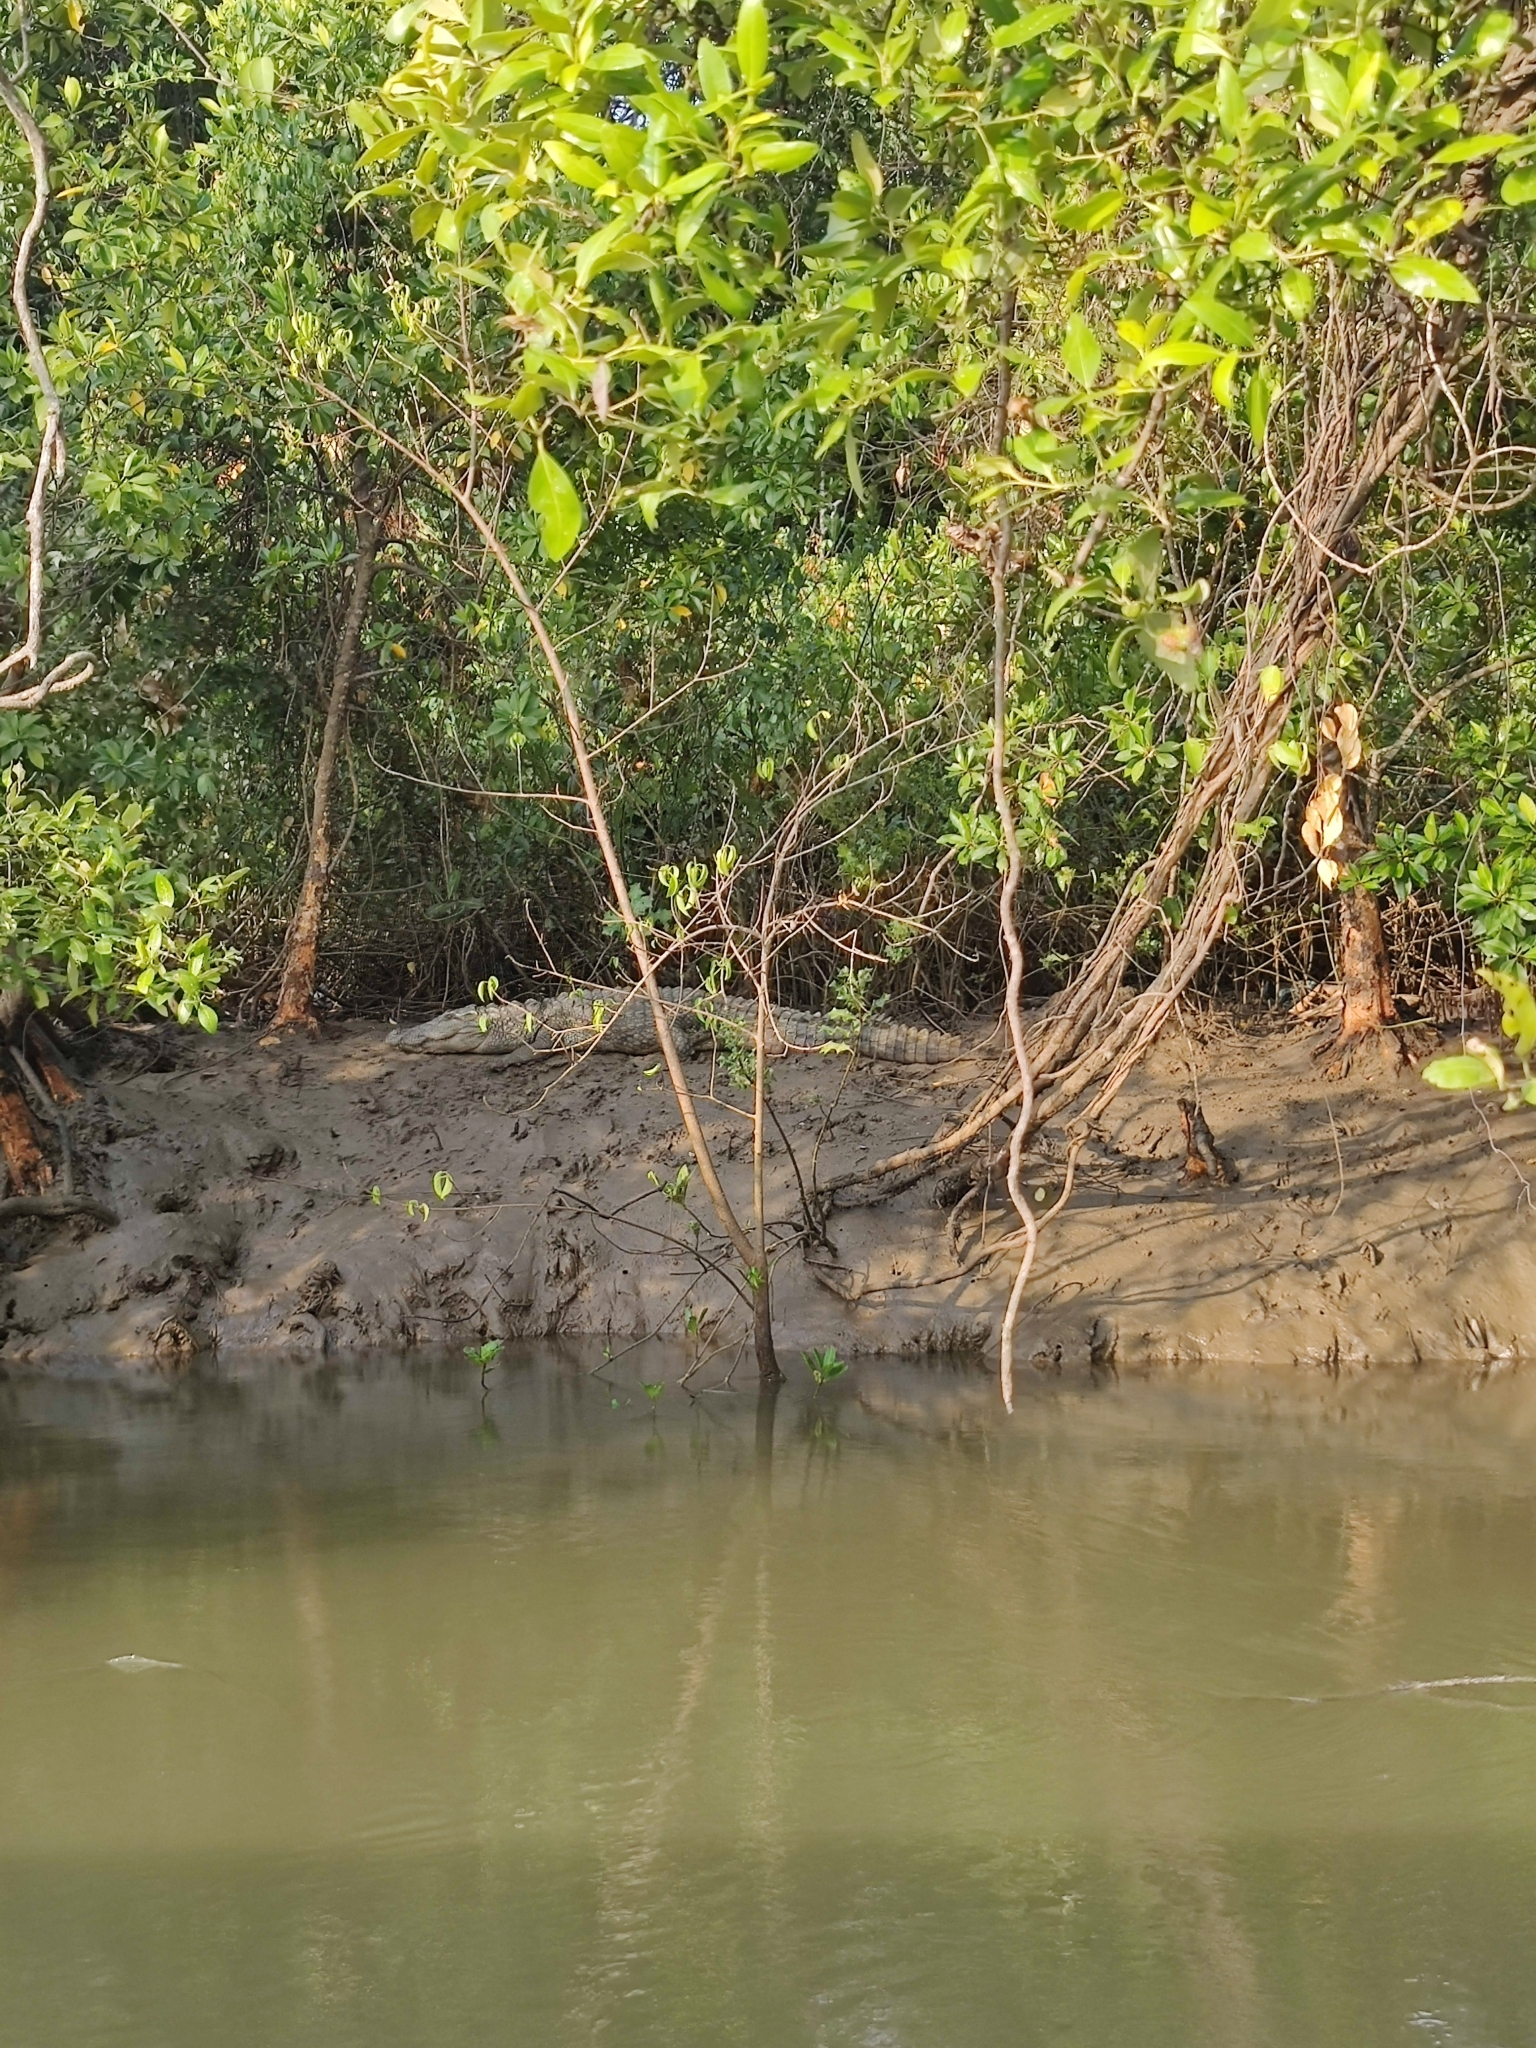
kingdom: Animalia
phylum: Chordata
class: Crocodylia
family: Crocodylidae
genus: Crocodylus
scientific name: Crocodylus palustris
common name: Mugger crocodile
